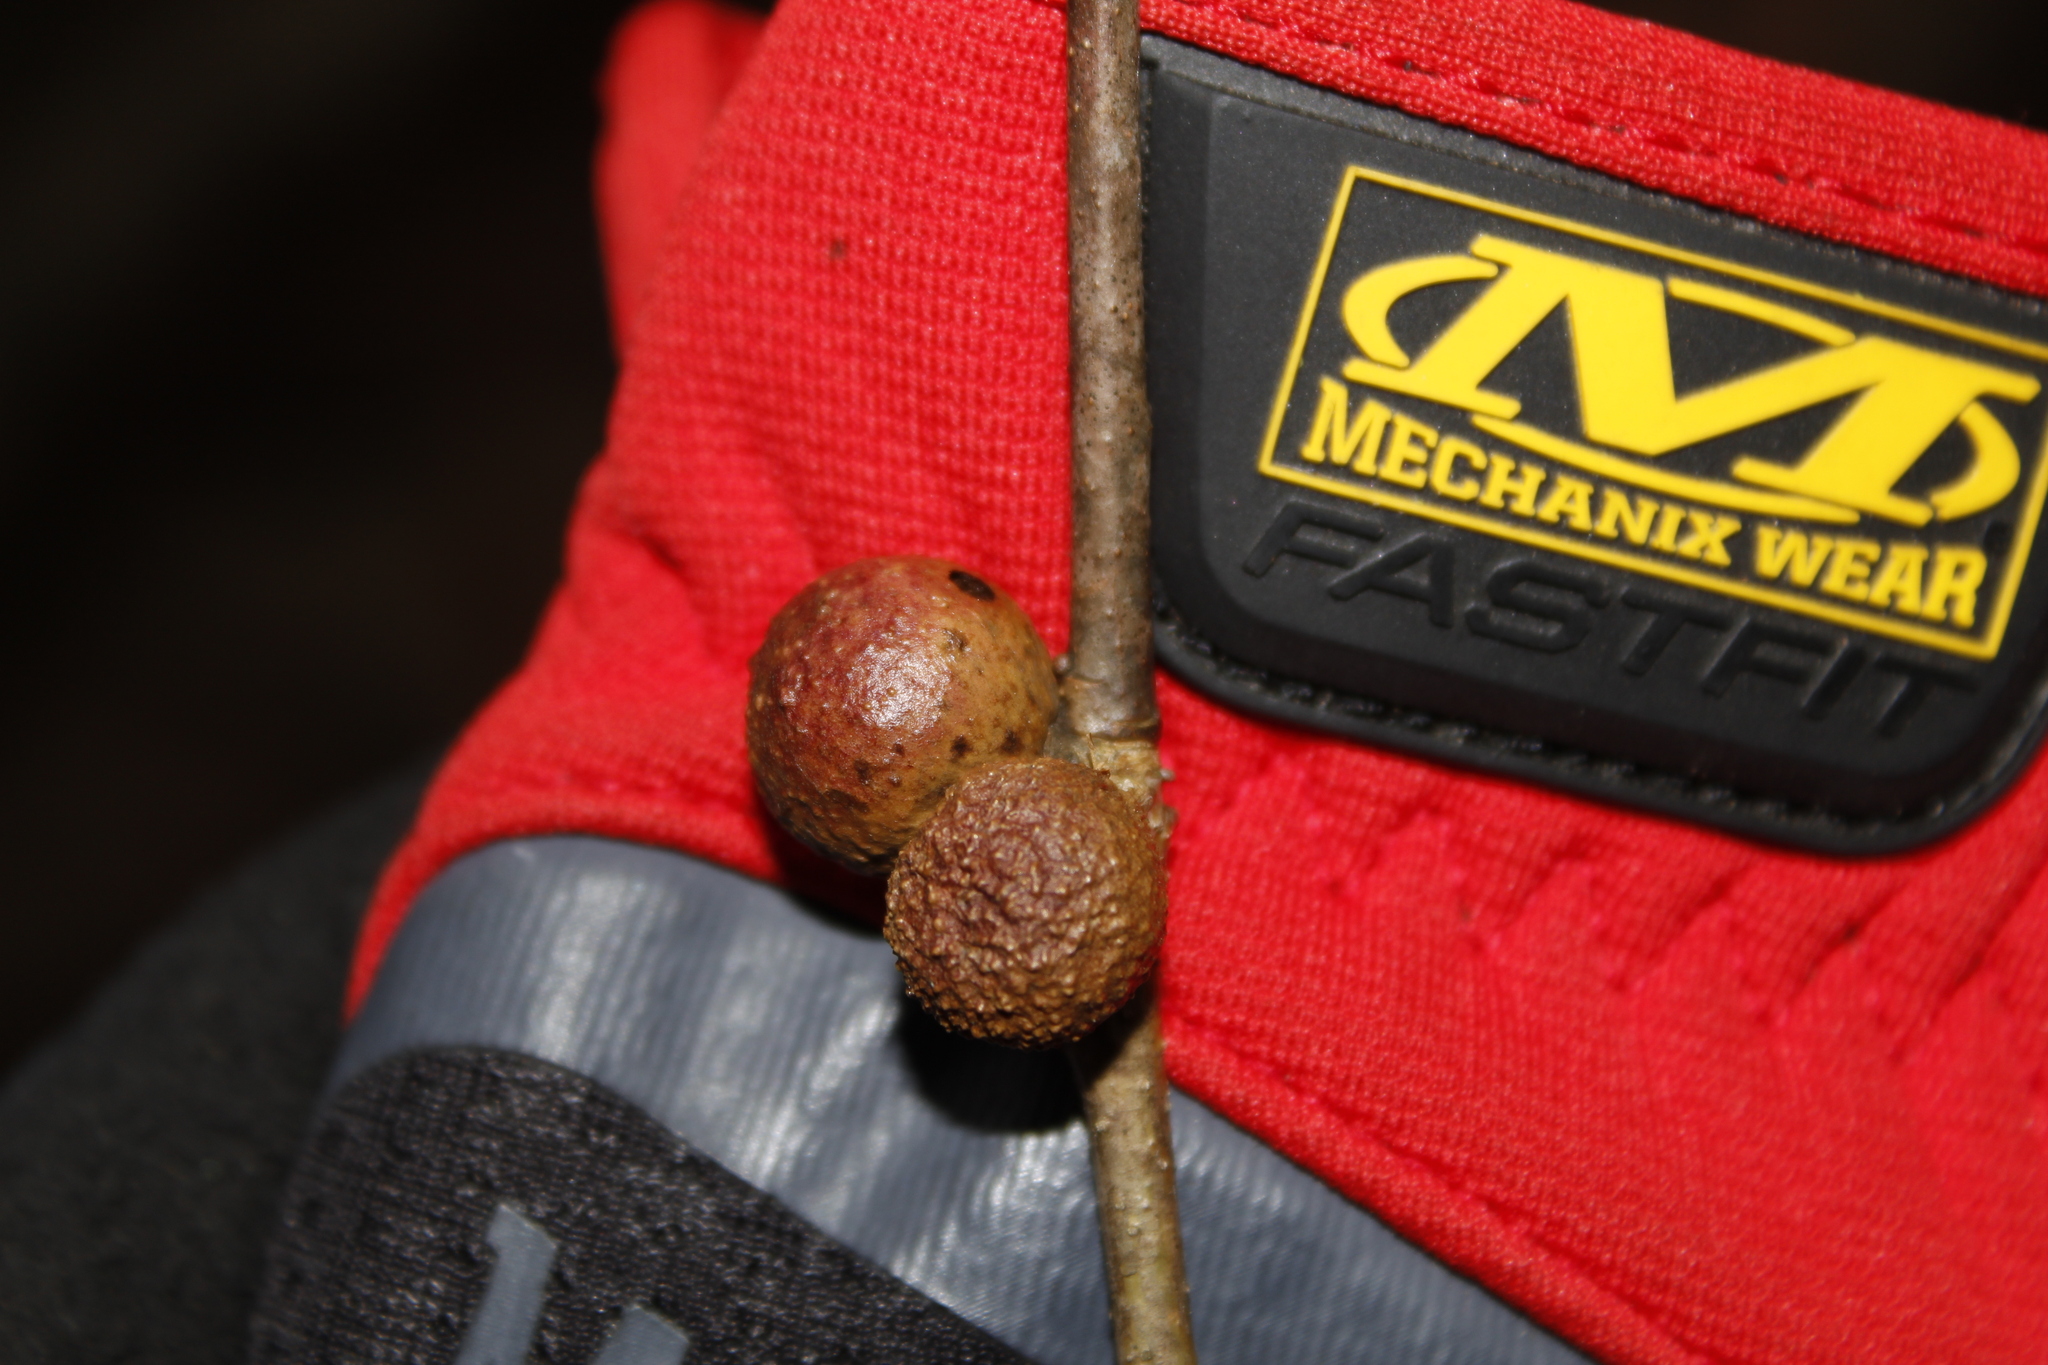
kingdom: Animalia
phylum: Arthropoda
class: Insecta
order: Hymenoptera
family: Cynipidae
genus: Disholcaspis
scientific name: Disholcaspis quercusglobulus
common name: Round bullet gall wasp
